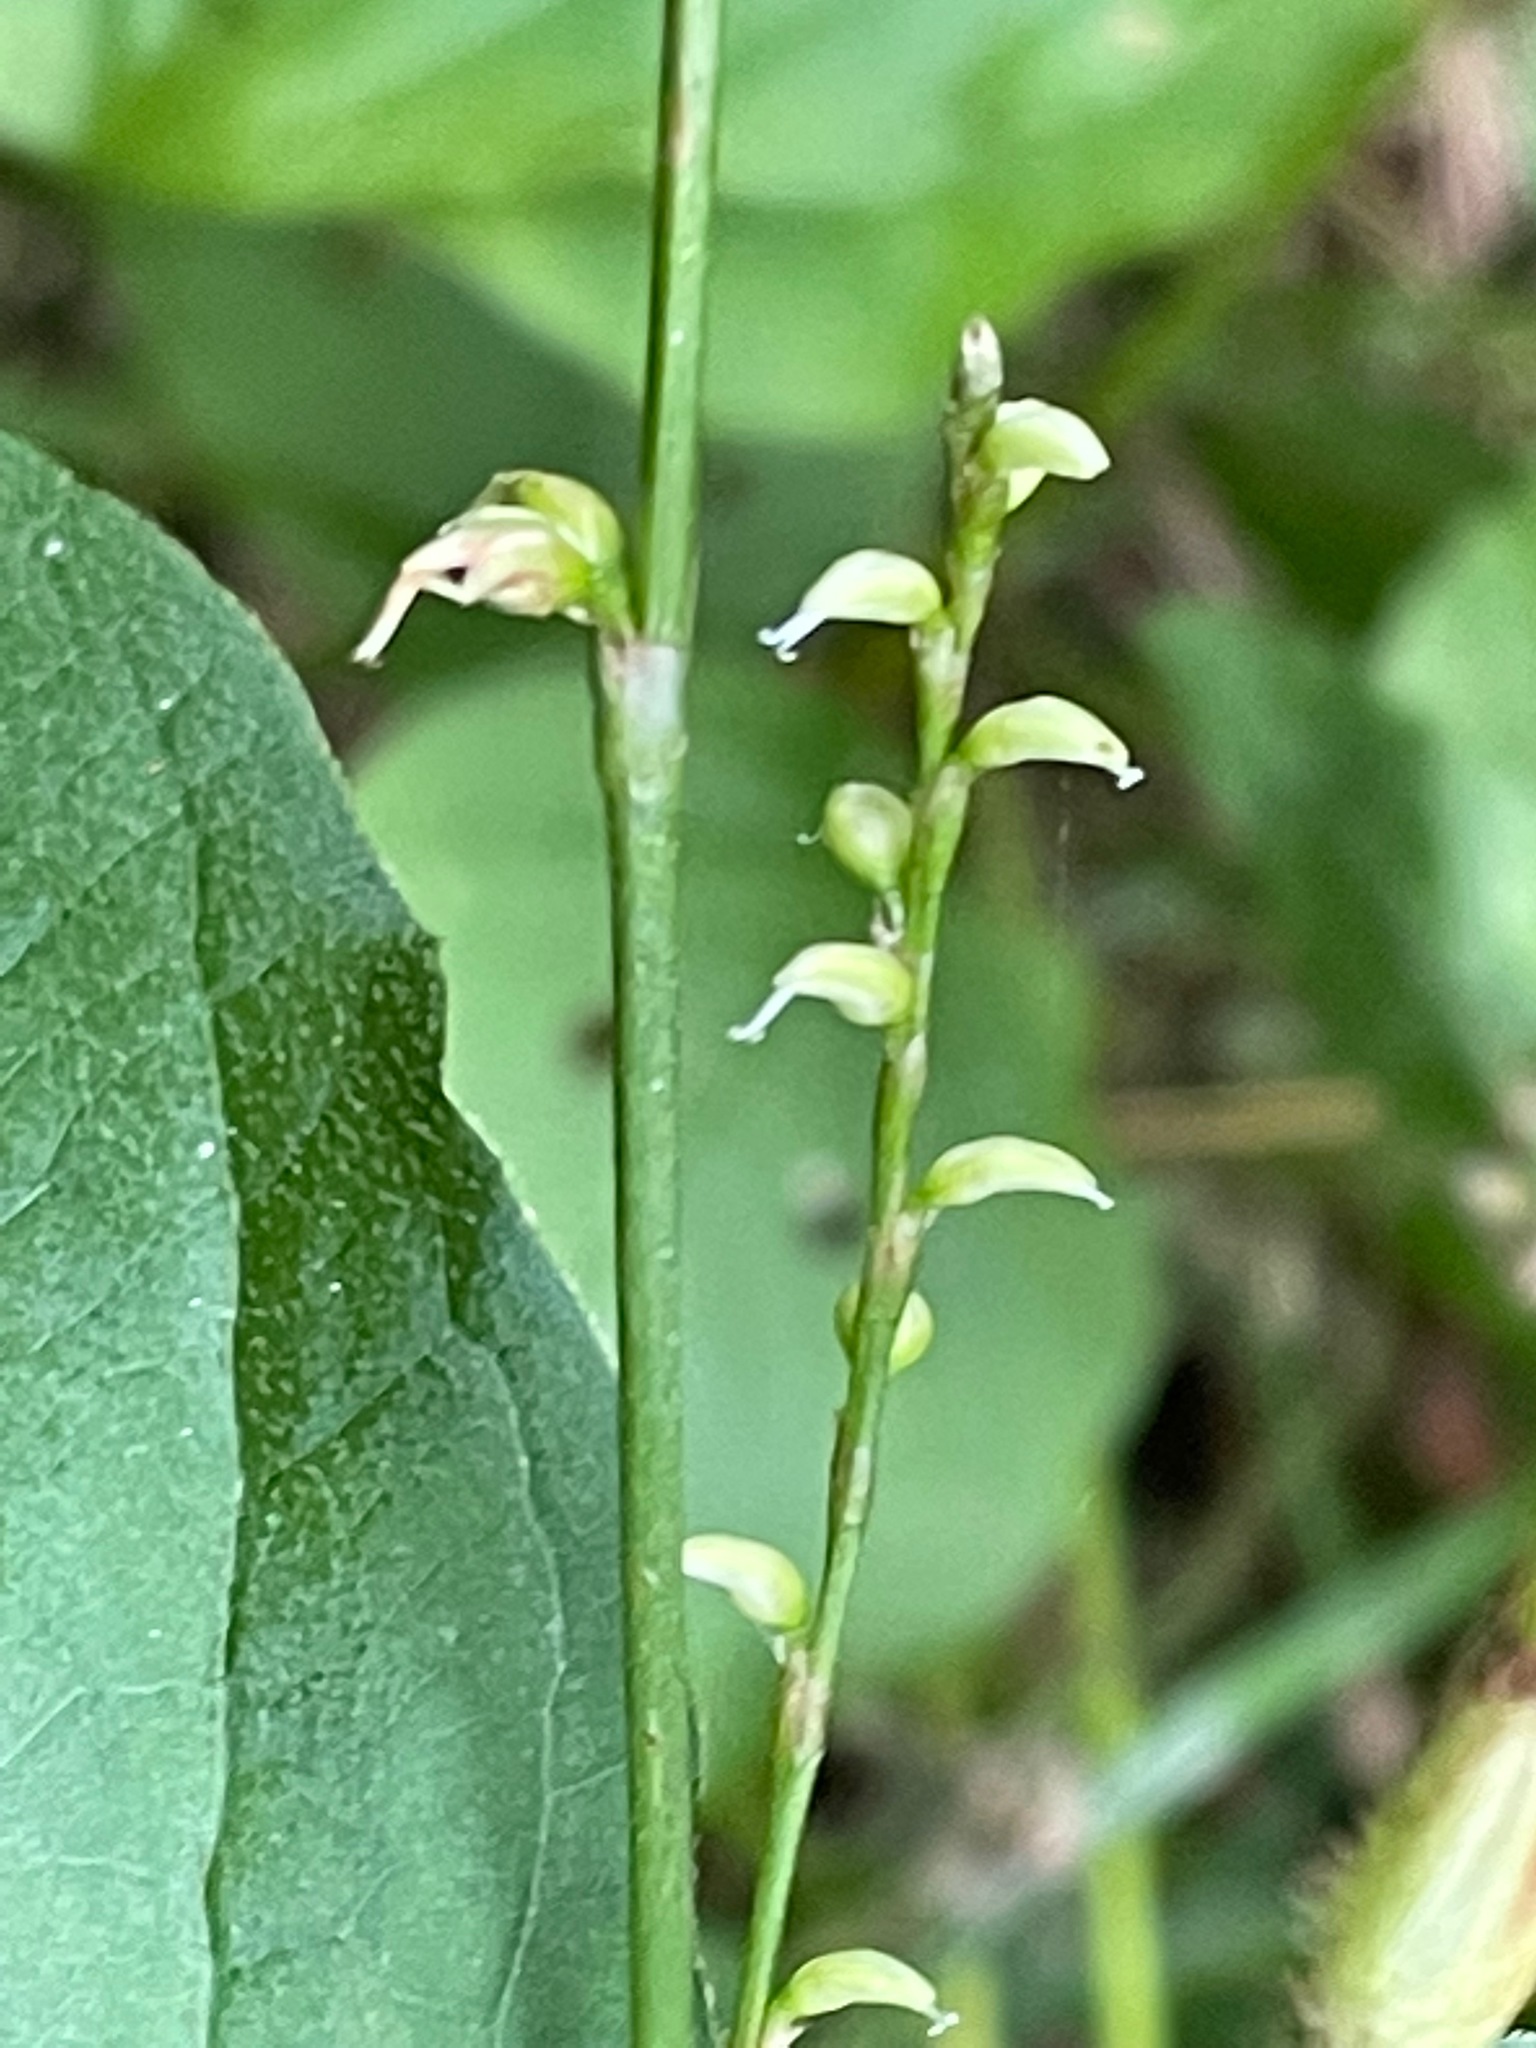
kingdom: Plantae
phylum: Tracheophyta
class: Magnoliopsida
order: Caryophyllales
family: Polygonaceae
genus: Persicaria
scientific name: Persicaria virginiana
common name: Jumpseed
